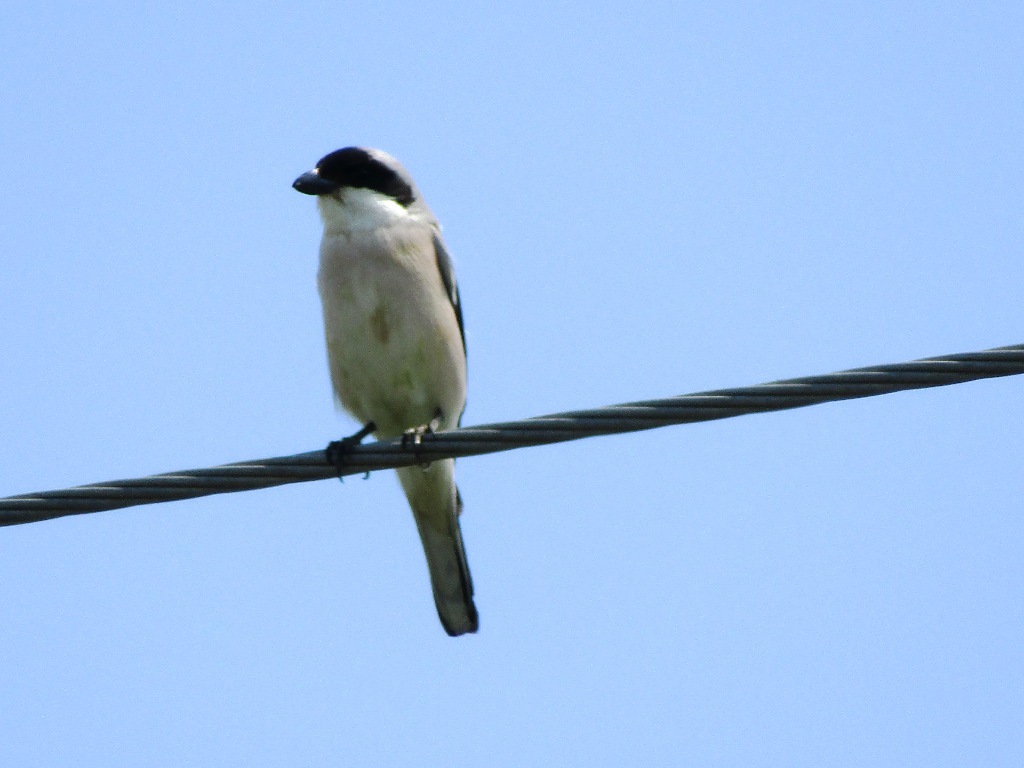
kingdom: Animalia
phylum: Chordata
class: Aves
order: Passeriformes
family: Laniidae
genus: Lanius
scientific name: Lanius minor
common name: Lesser grey shrike
